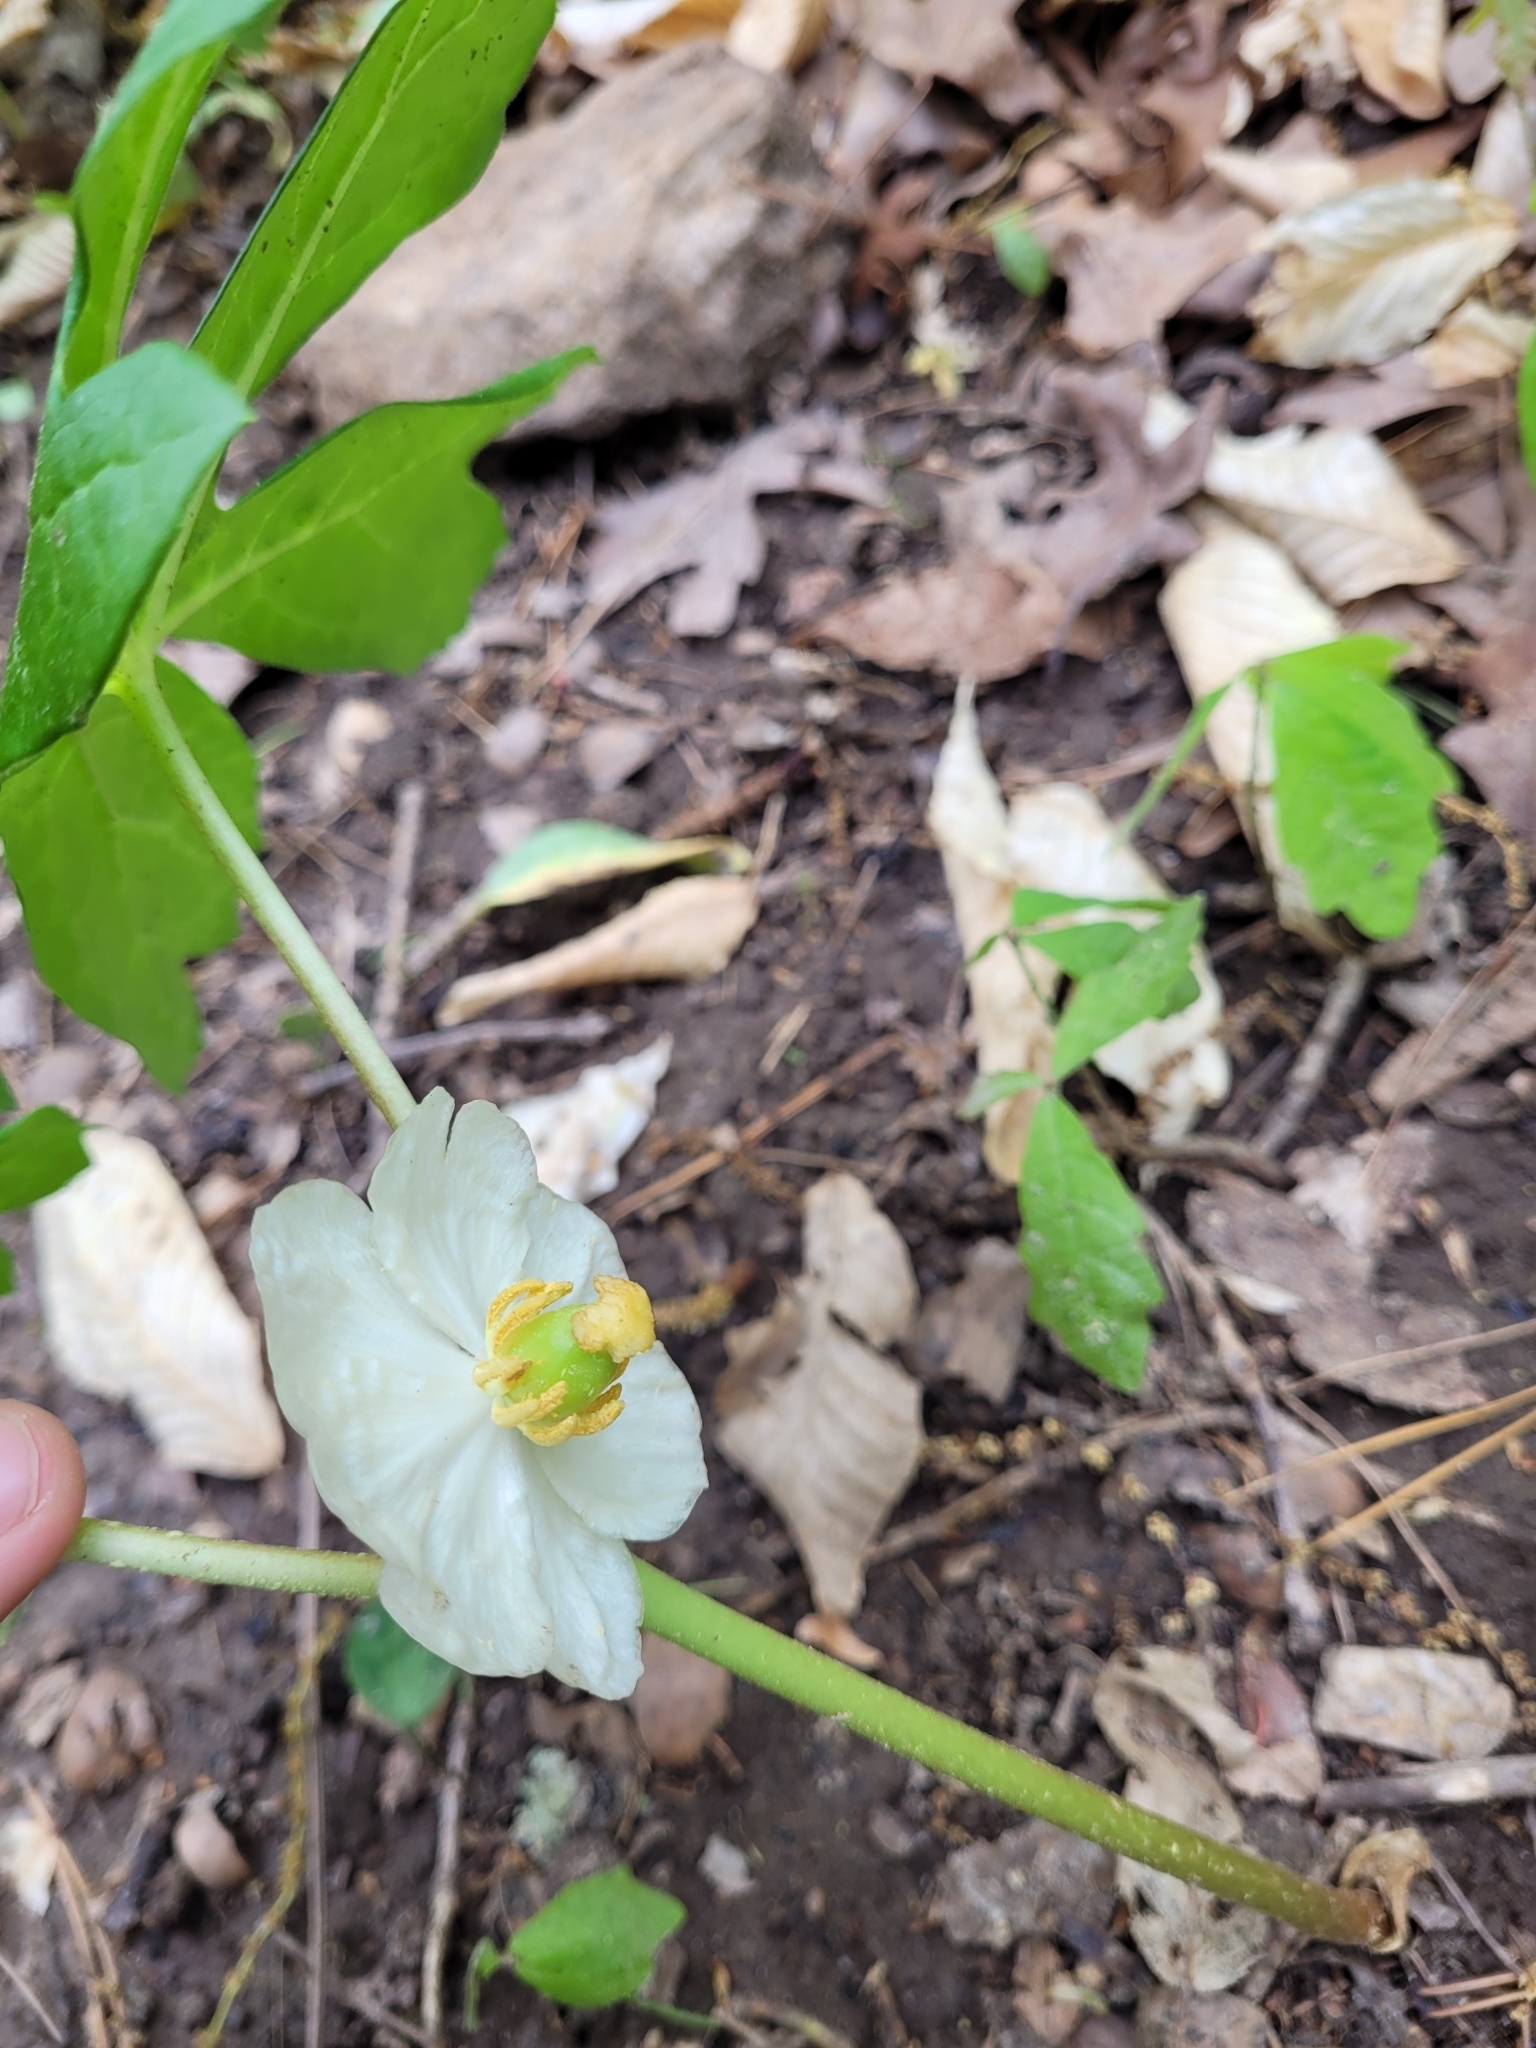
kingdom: Plantae
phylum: Tracheophyta
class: Magnoliopsida
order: Ranunculales
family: Berberidaceae
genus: Podophyllum
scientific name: Podophyllum peltatum
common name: Wild mandrake
